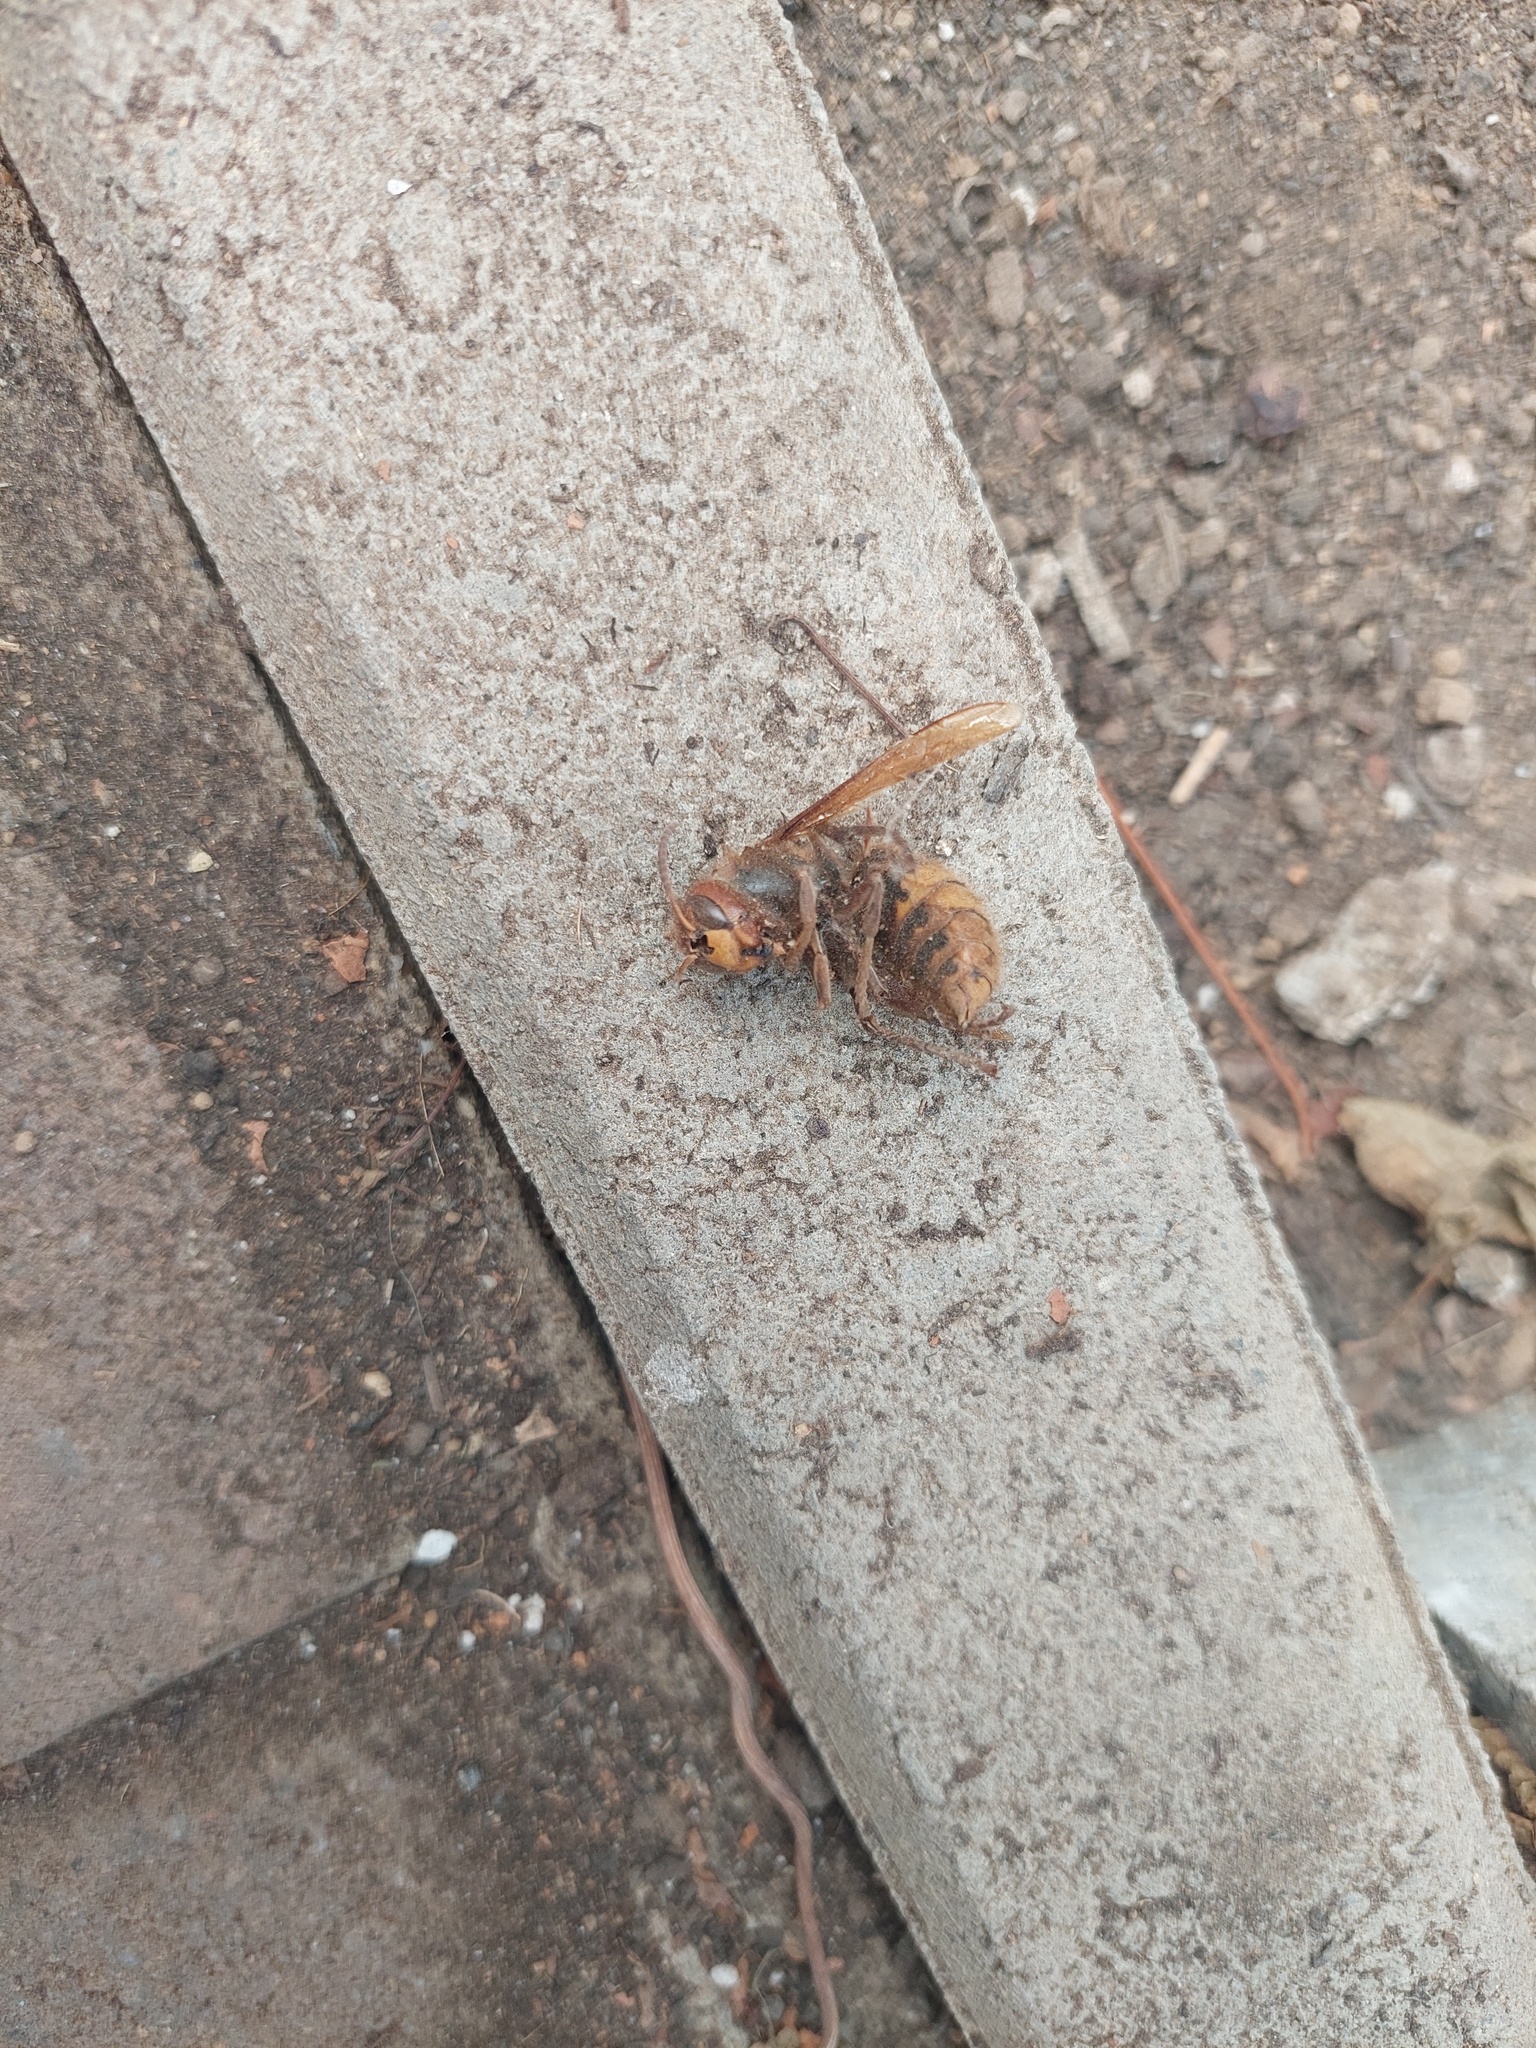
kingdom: Animalia
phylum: Arthropoda
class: Insecta
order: Hymenoptera
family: Vespidae
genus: Vespa
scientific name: Vespa crabro
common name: Hornet
